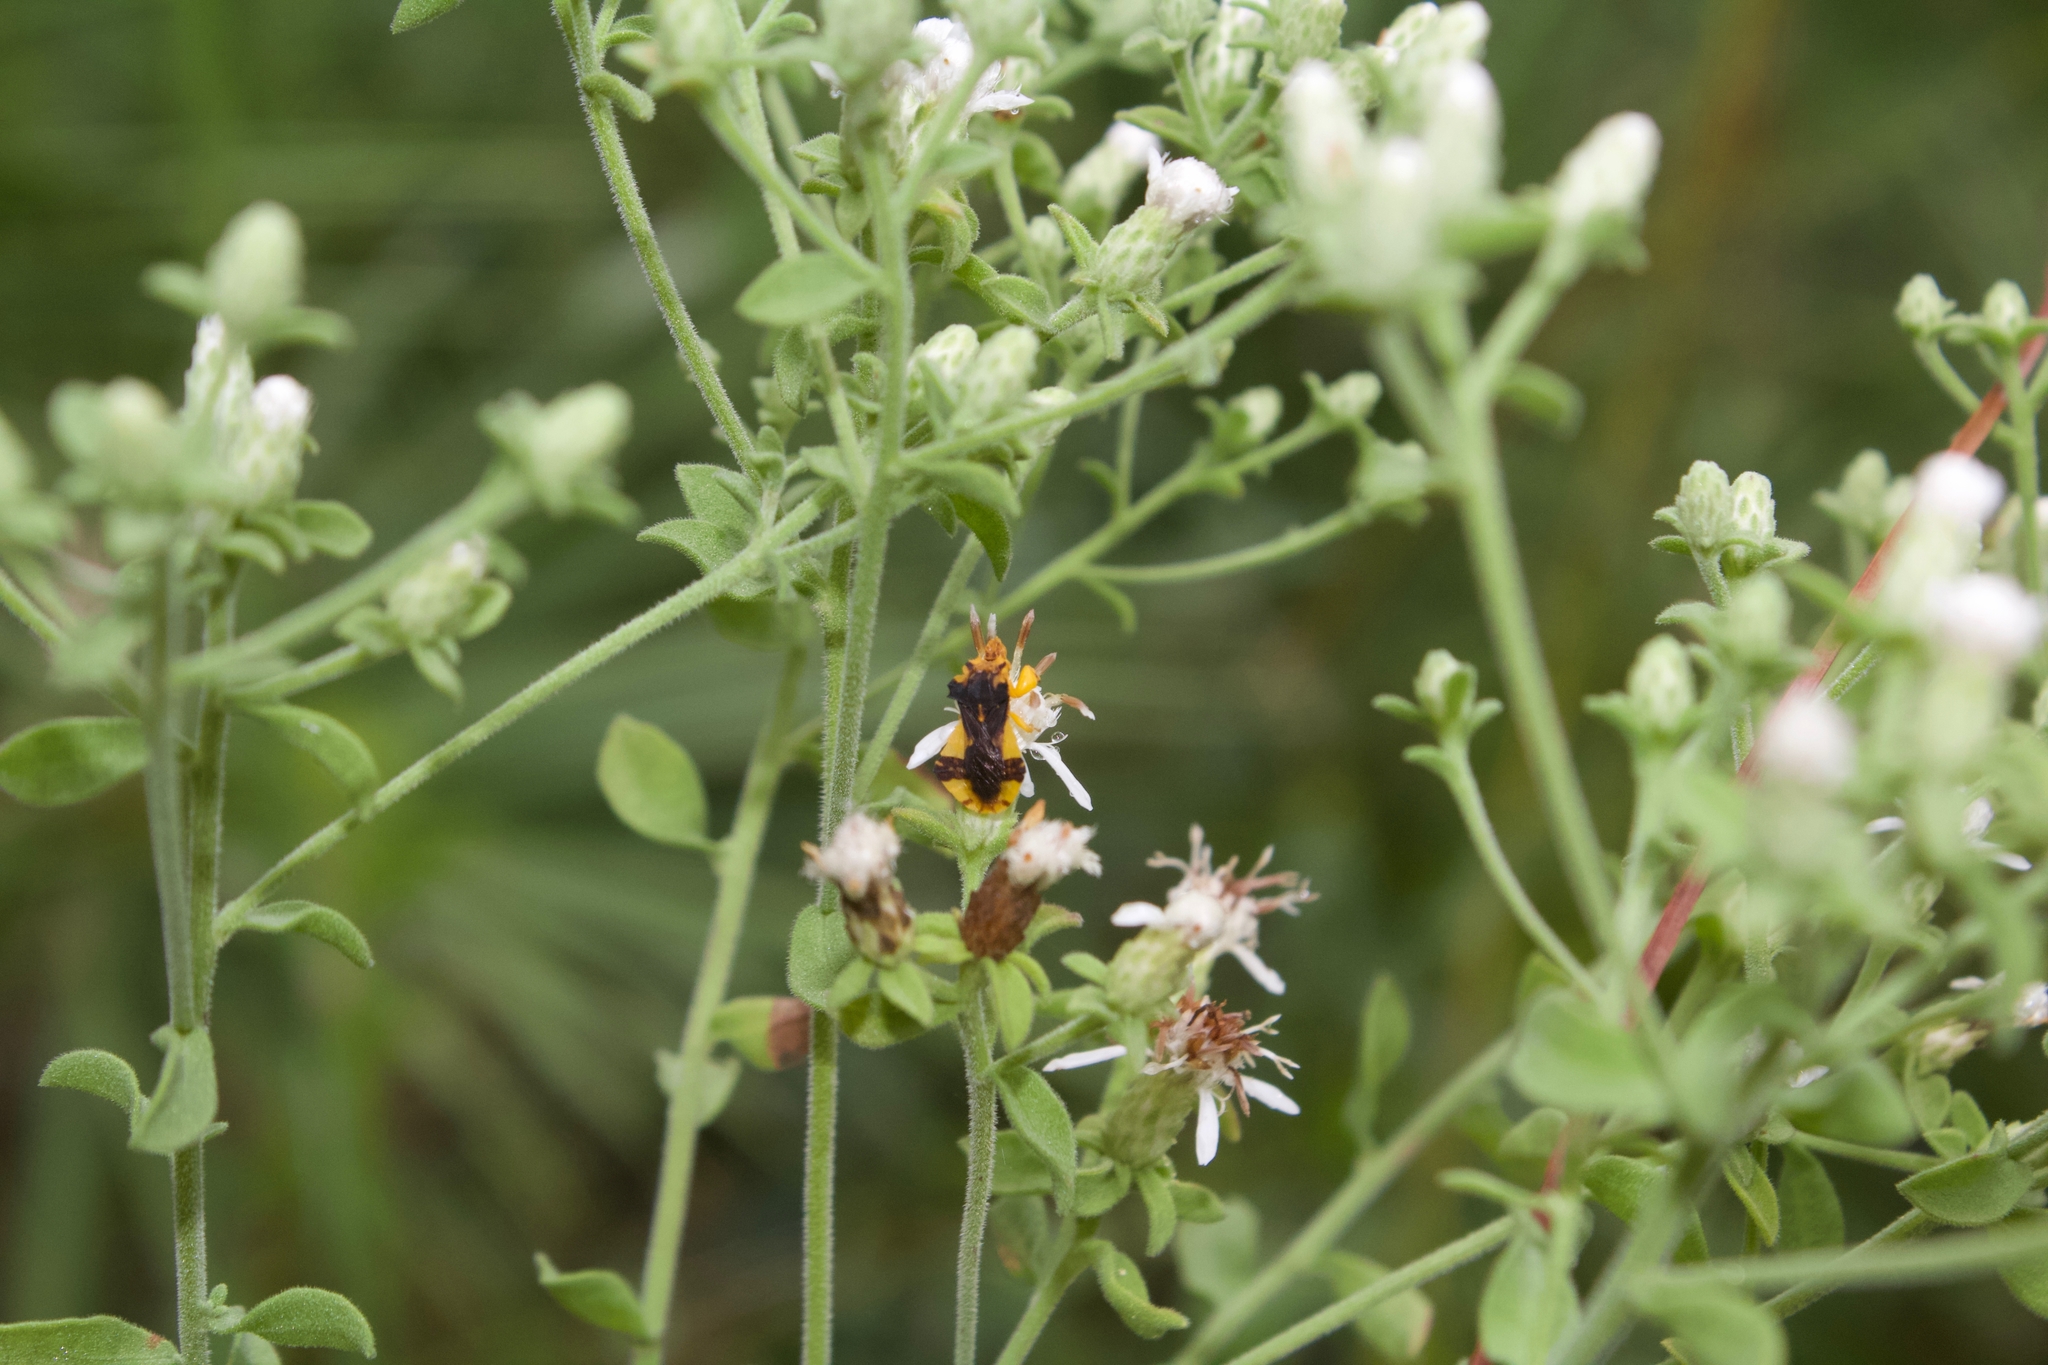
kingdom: Animalia
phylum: Arthropoda
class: Insecta
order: Hemiptera
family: Reduviidae
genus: Phymata
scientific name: Phymata
